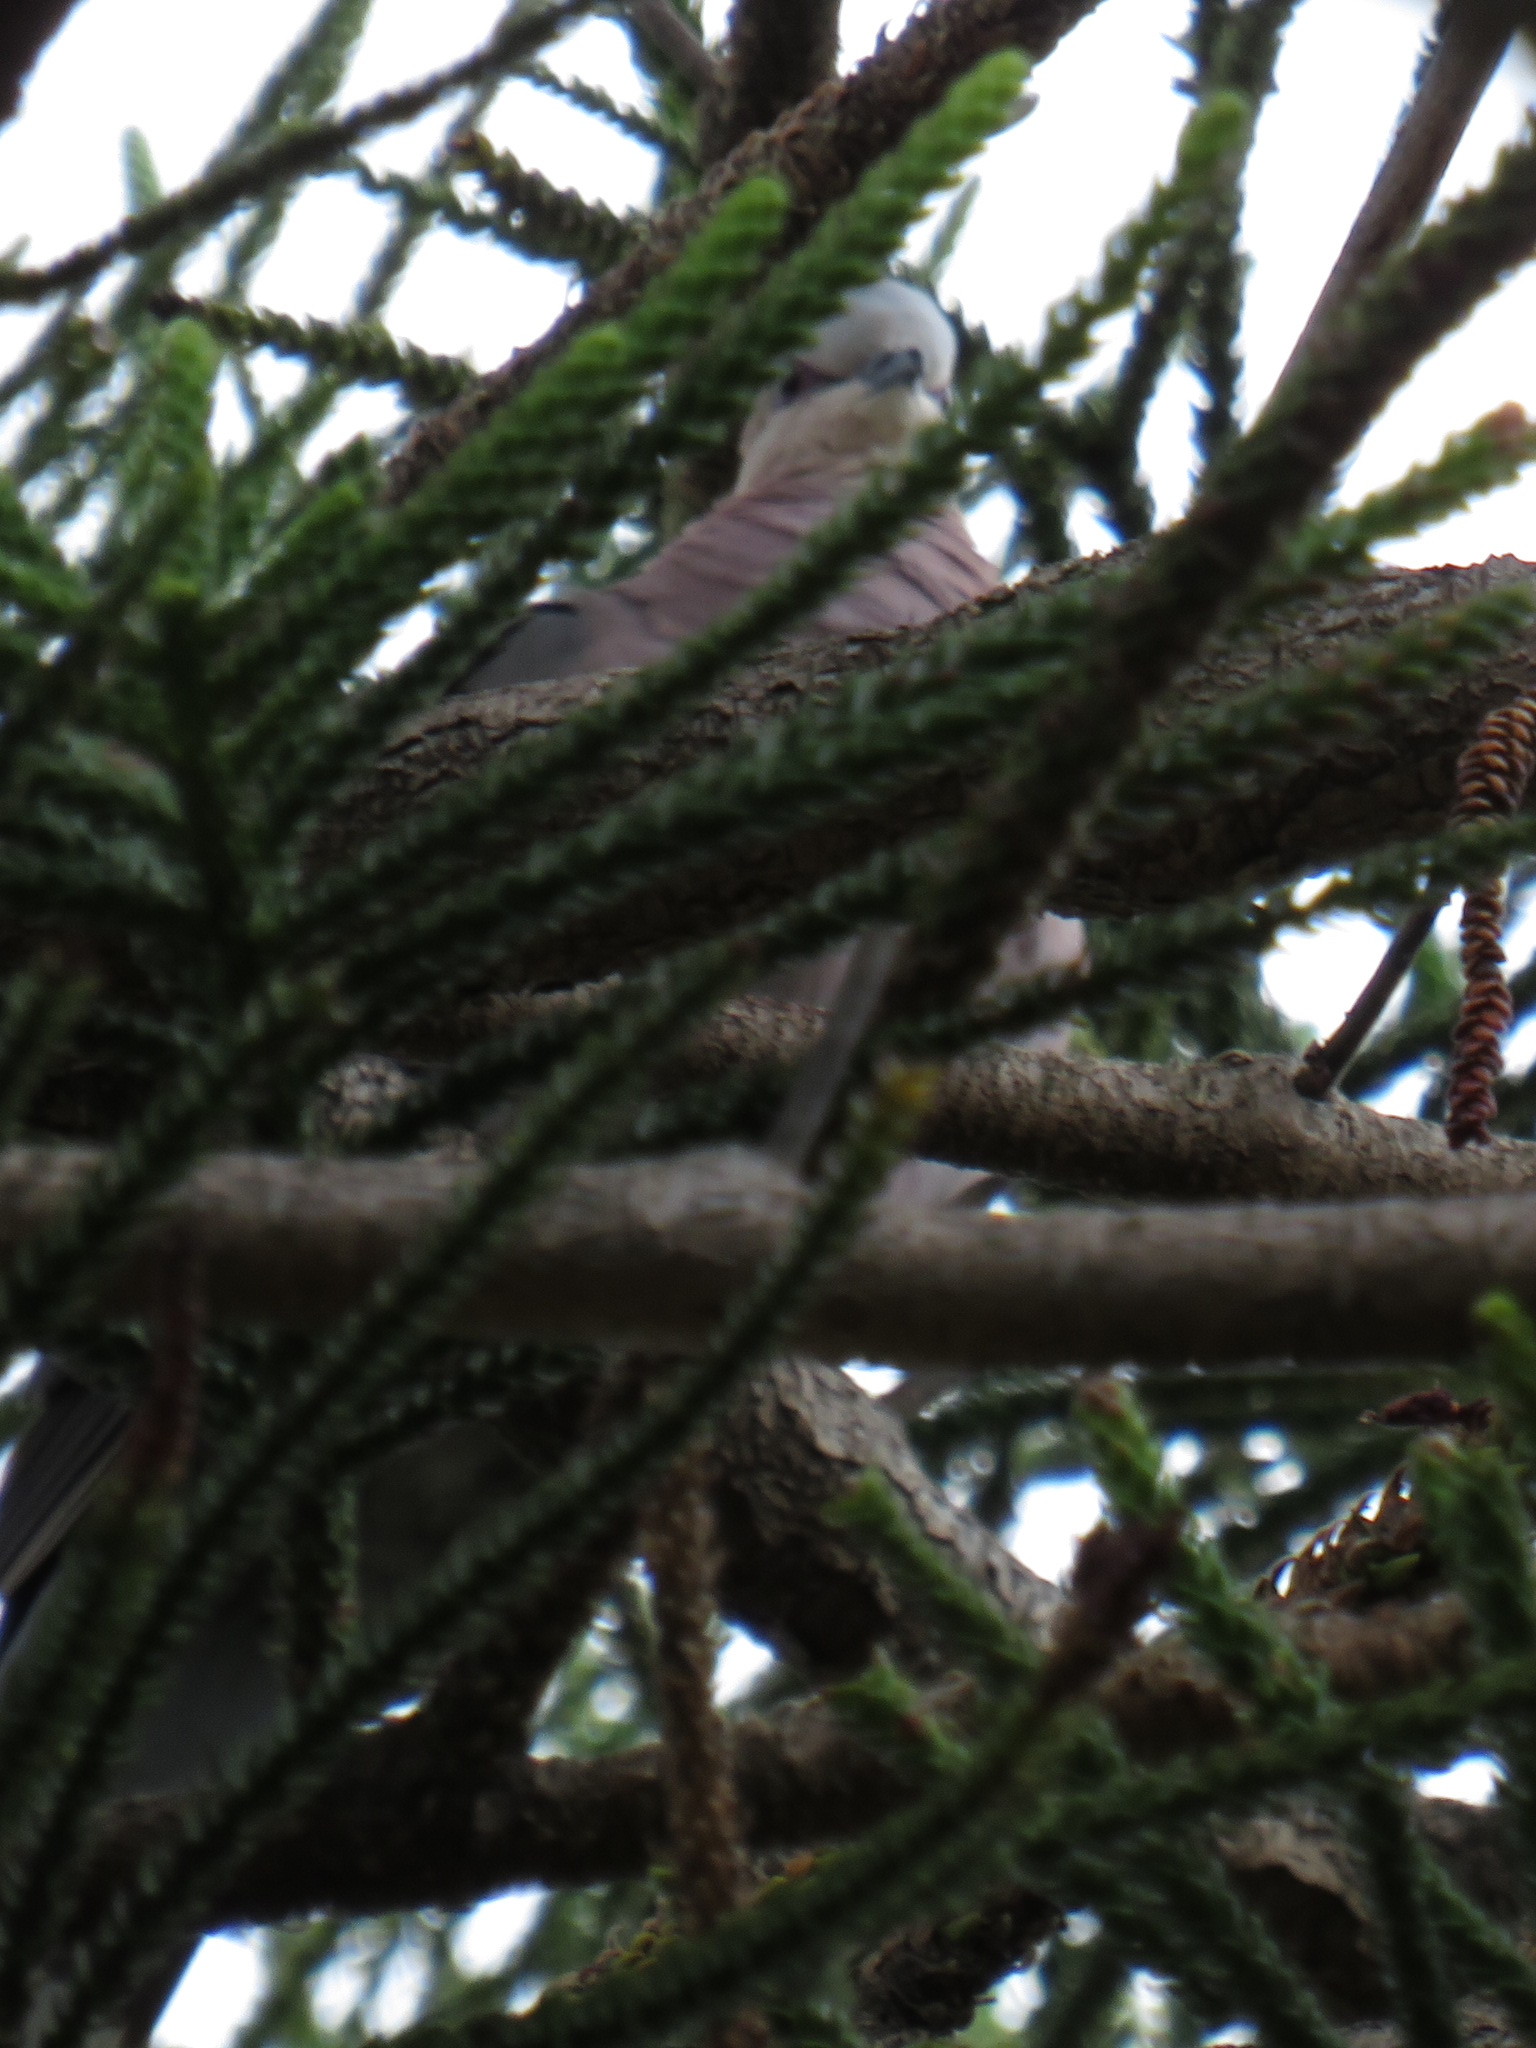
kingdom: Animalia
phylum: Chordata
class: Aves
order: Columbiformes
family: Columbidae
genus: Streptopelia
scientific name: Streptopelia semitorquata
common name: Red-eyed dove
